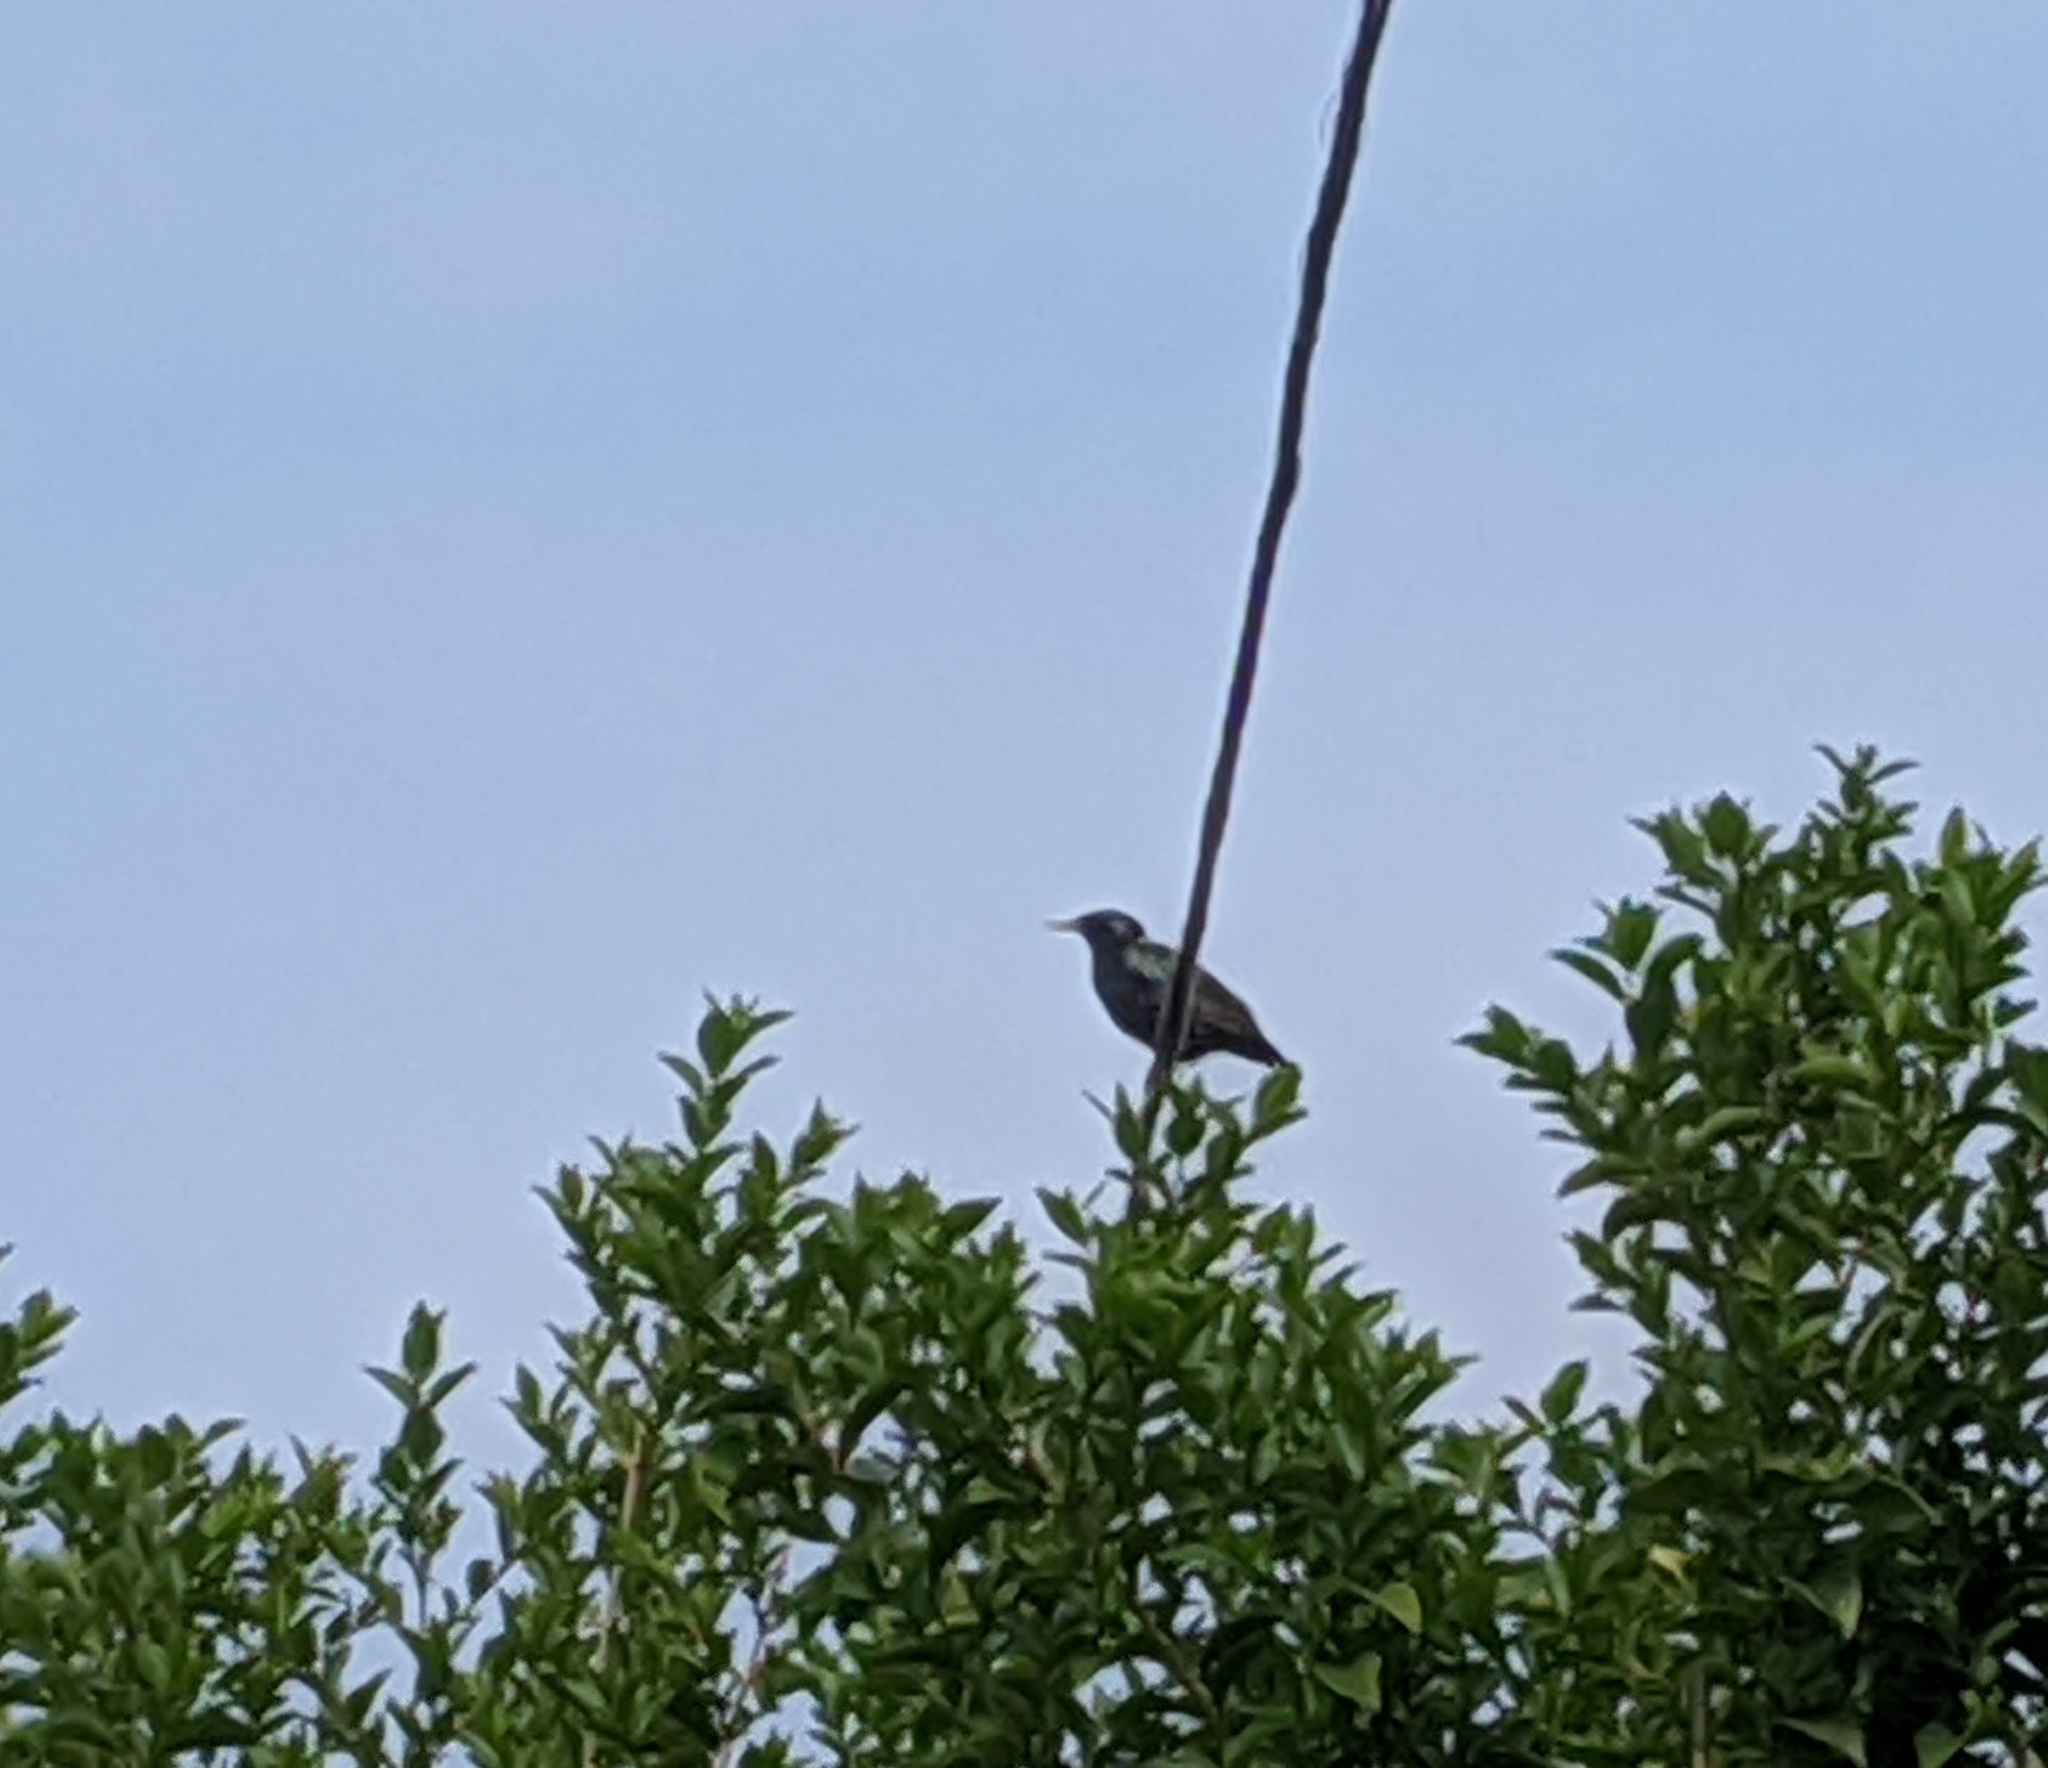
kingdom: Animalia
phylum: Chordata
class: Aves
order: Passeriformes
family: Sturnidae
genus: Sturnus
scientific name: Sturnus vulgaris
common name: Common starling
